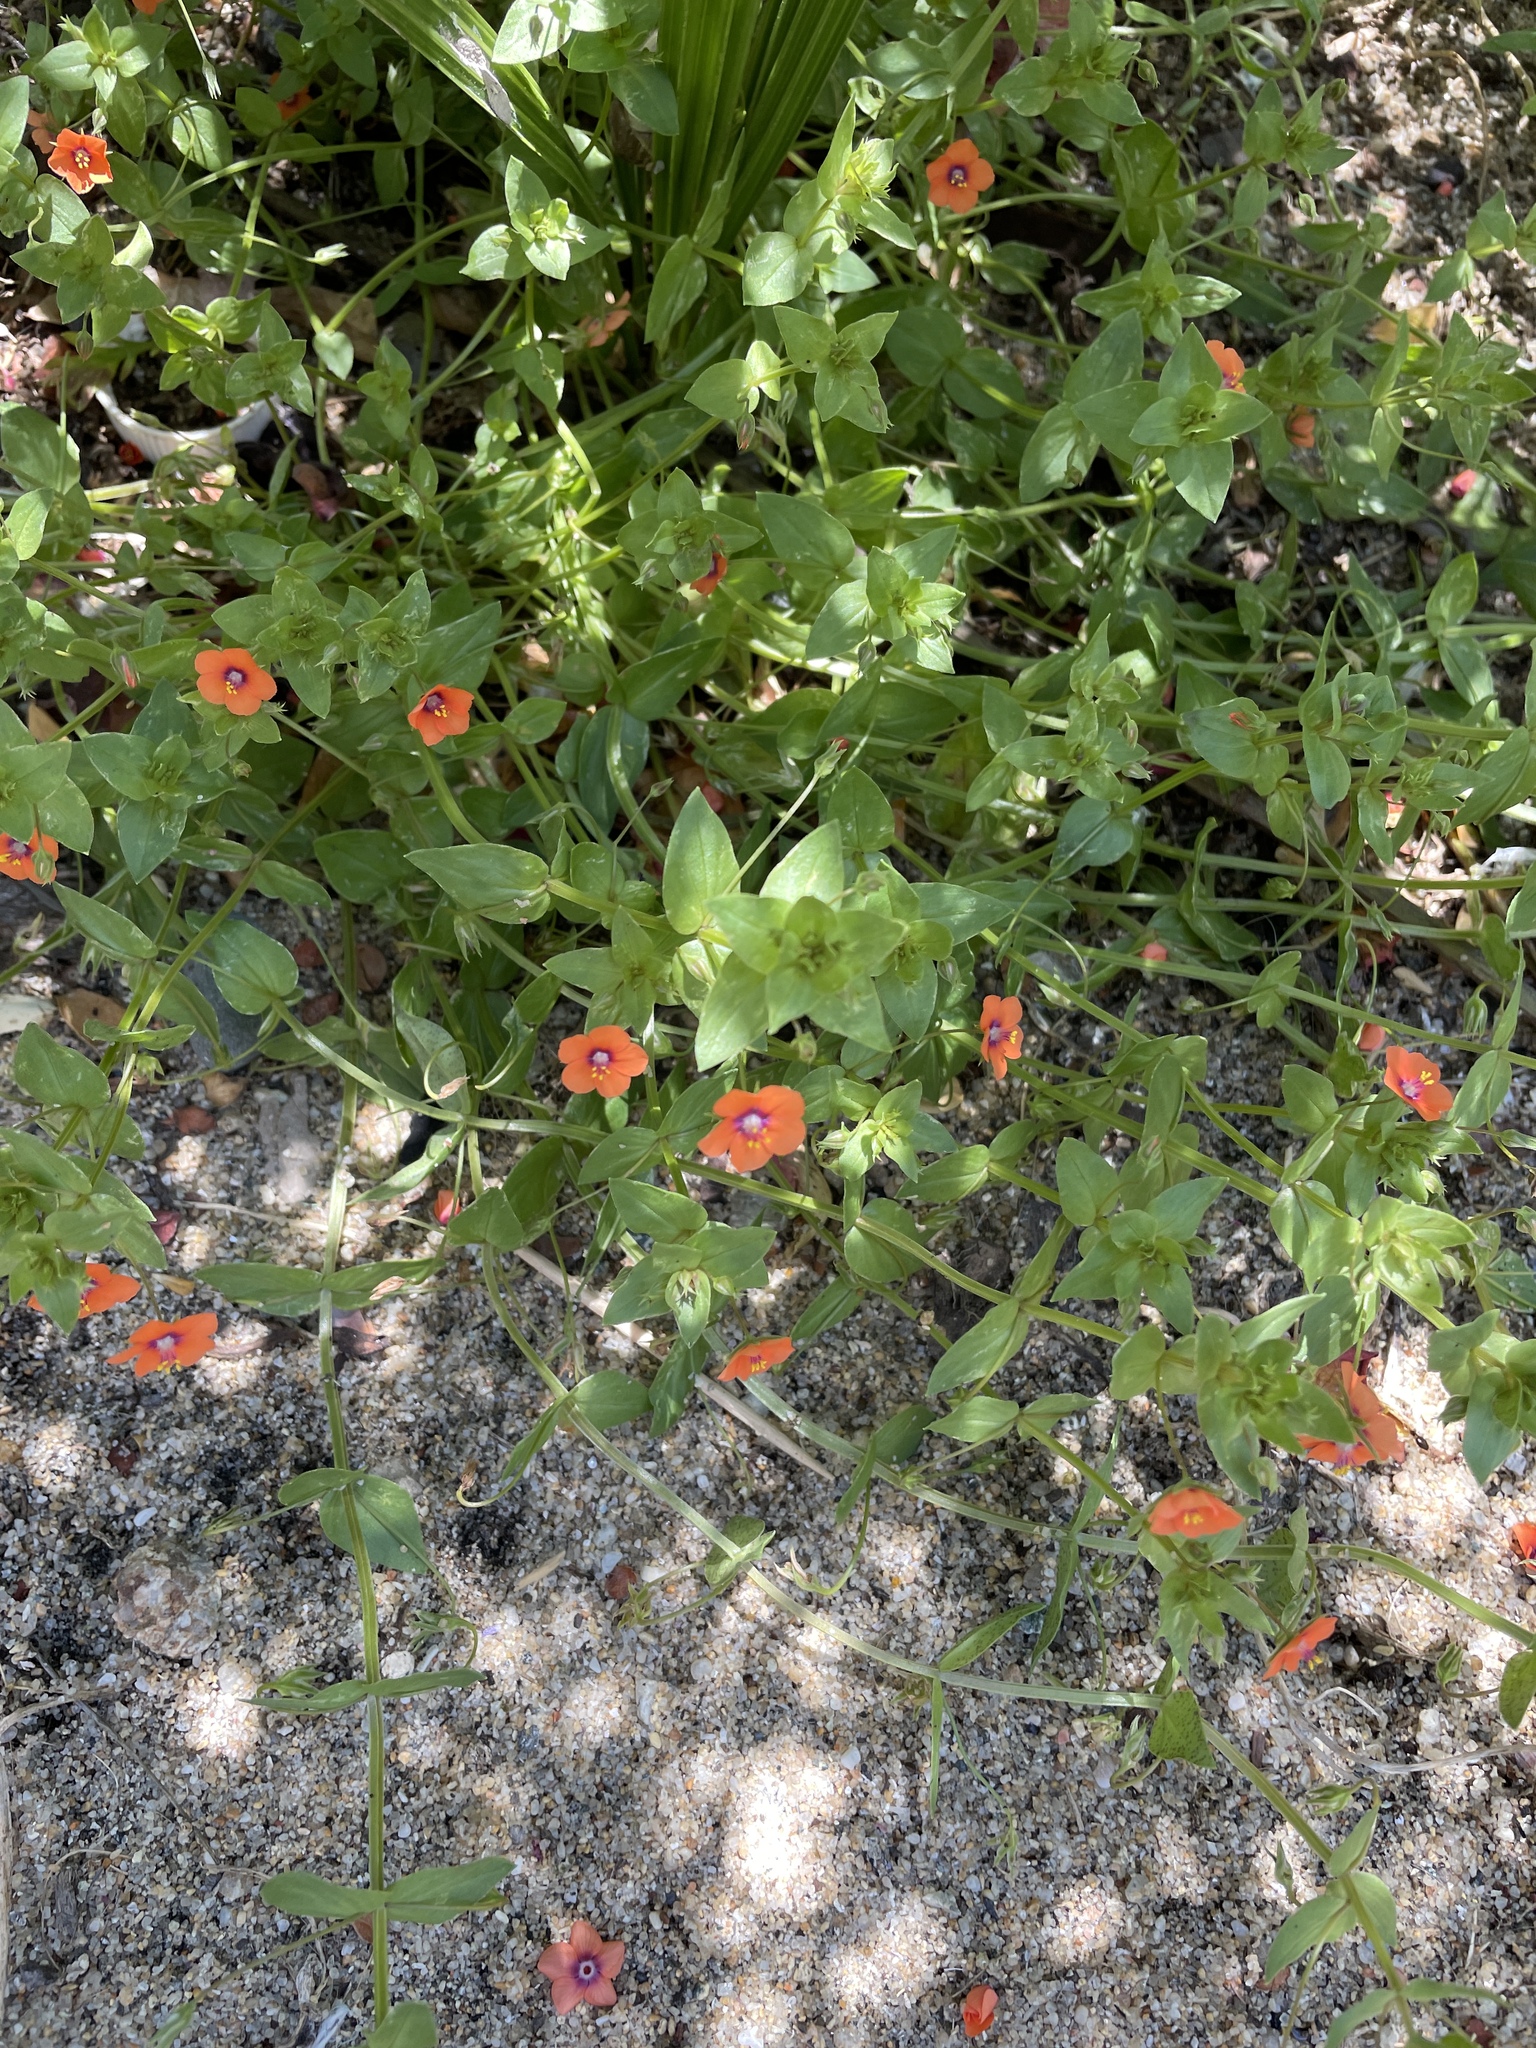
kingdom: Plantae
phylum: Tracheophyta
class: Magnoliopsida
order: Ericales
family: Primulaceae
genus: Lysimachia
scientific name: Lysimachia arvensis
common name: Scarlet pimpernel
